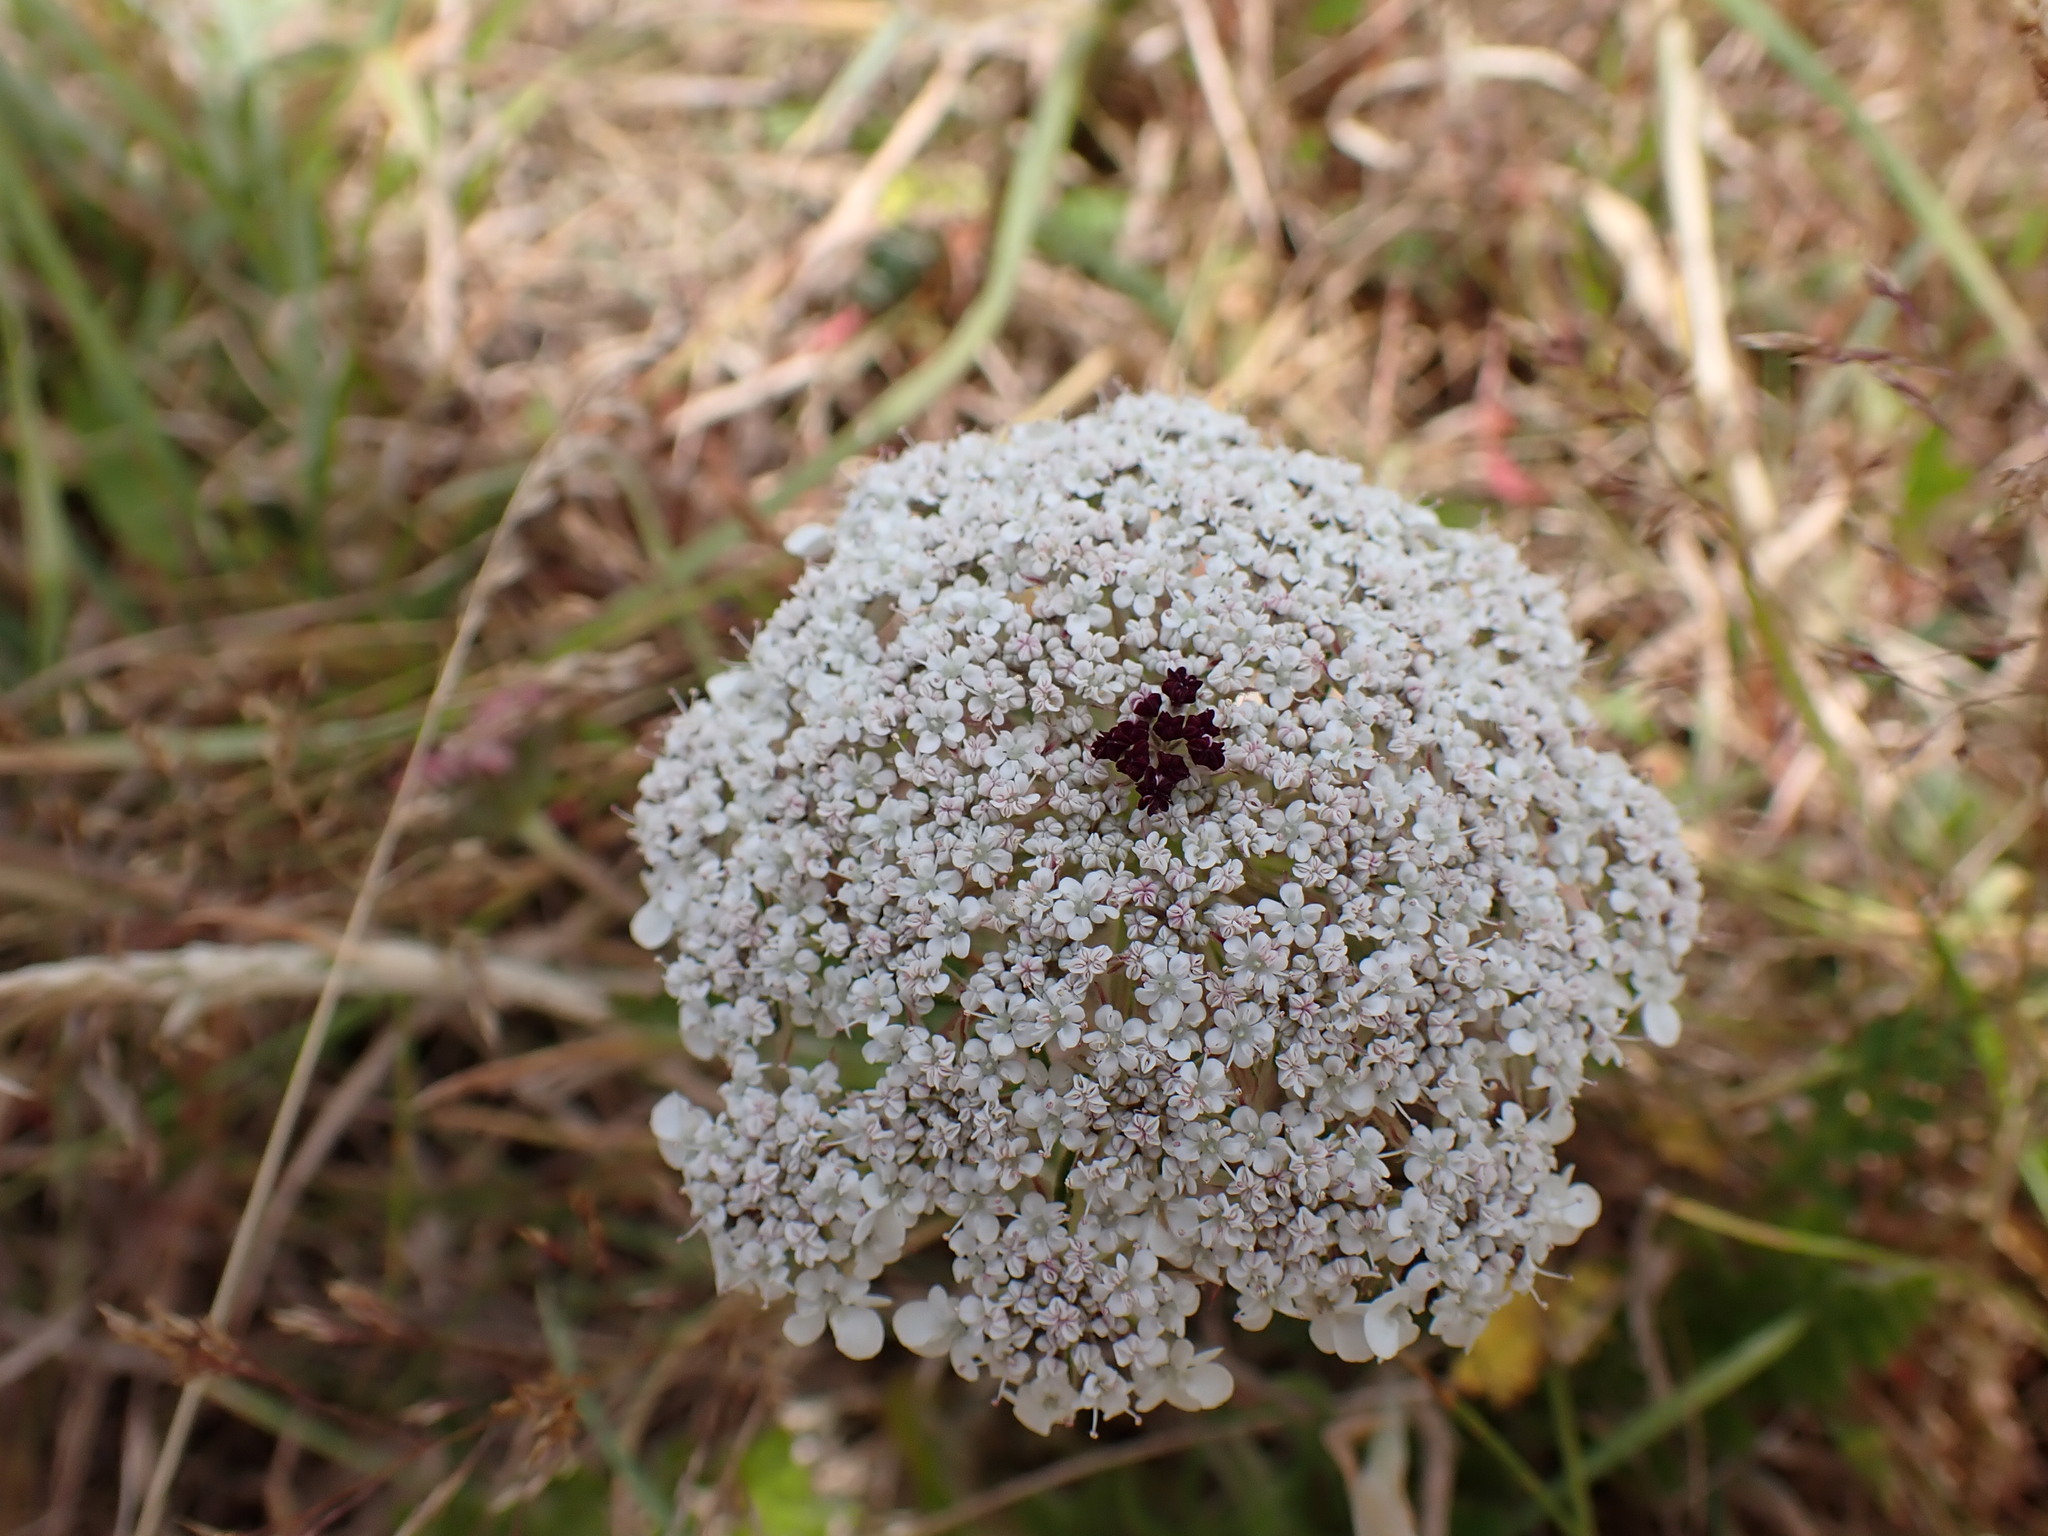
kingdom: Plantae
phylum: Tracheophyta
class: Magnoliopsida
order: Apiales
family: Apiaceae
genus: Daucus
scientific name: Daucus carota
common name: Wild carrot
